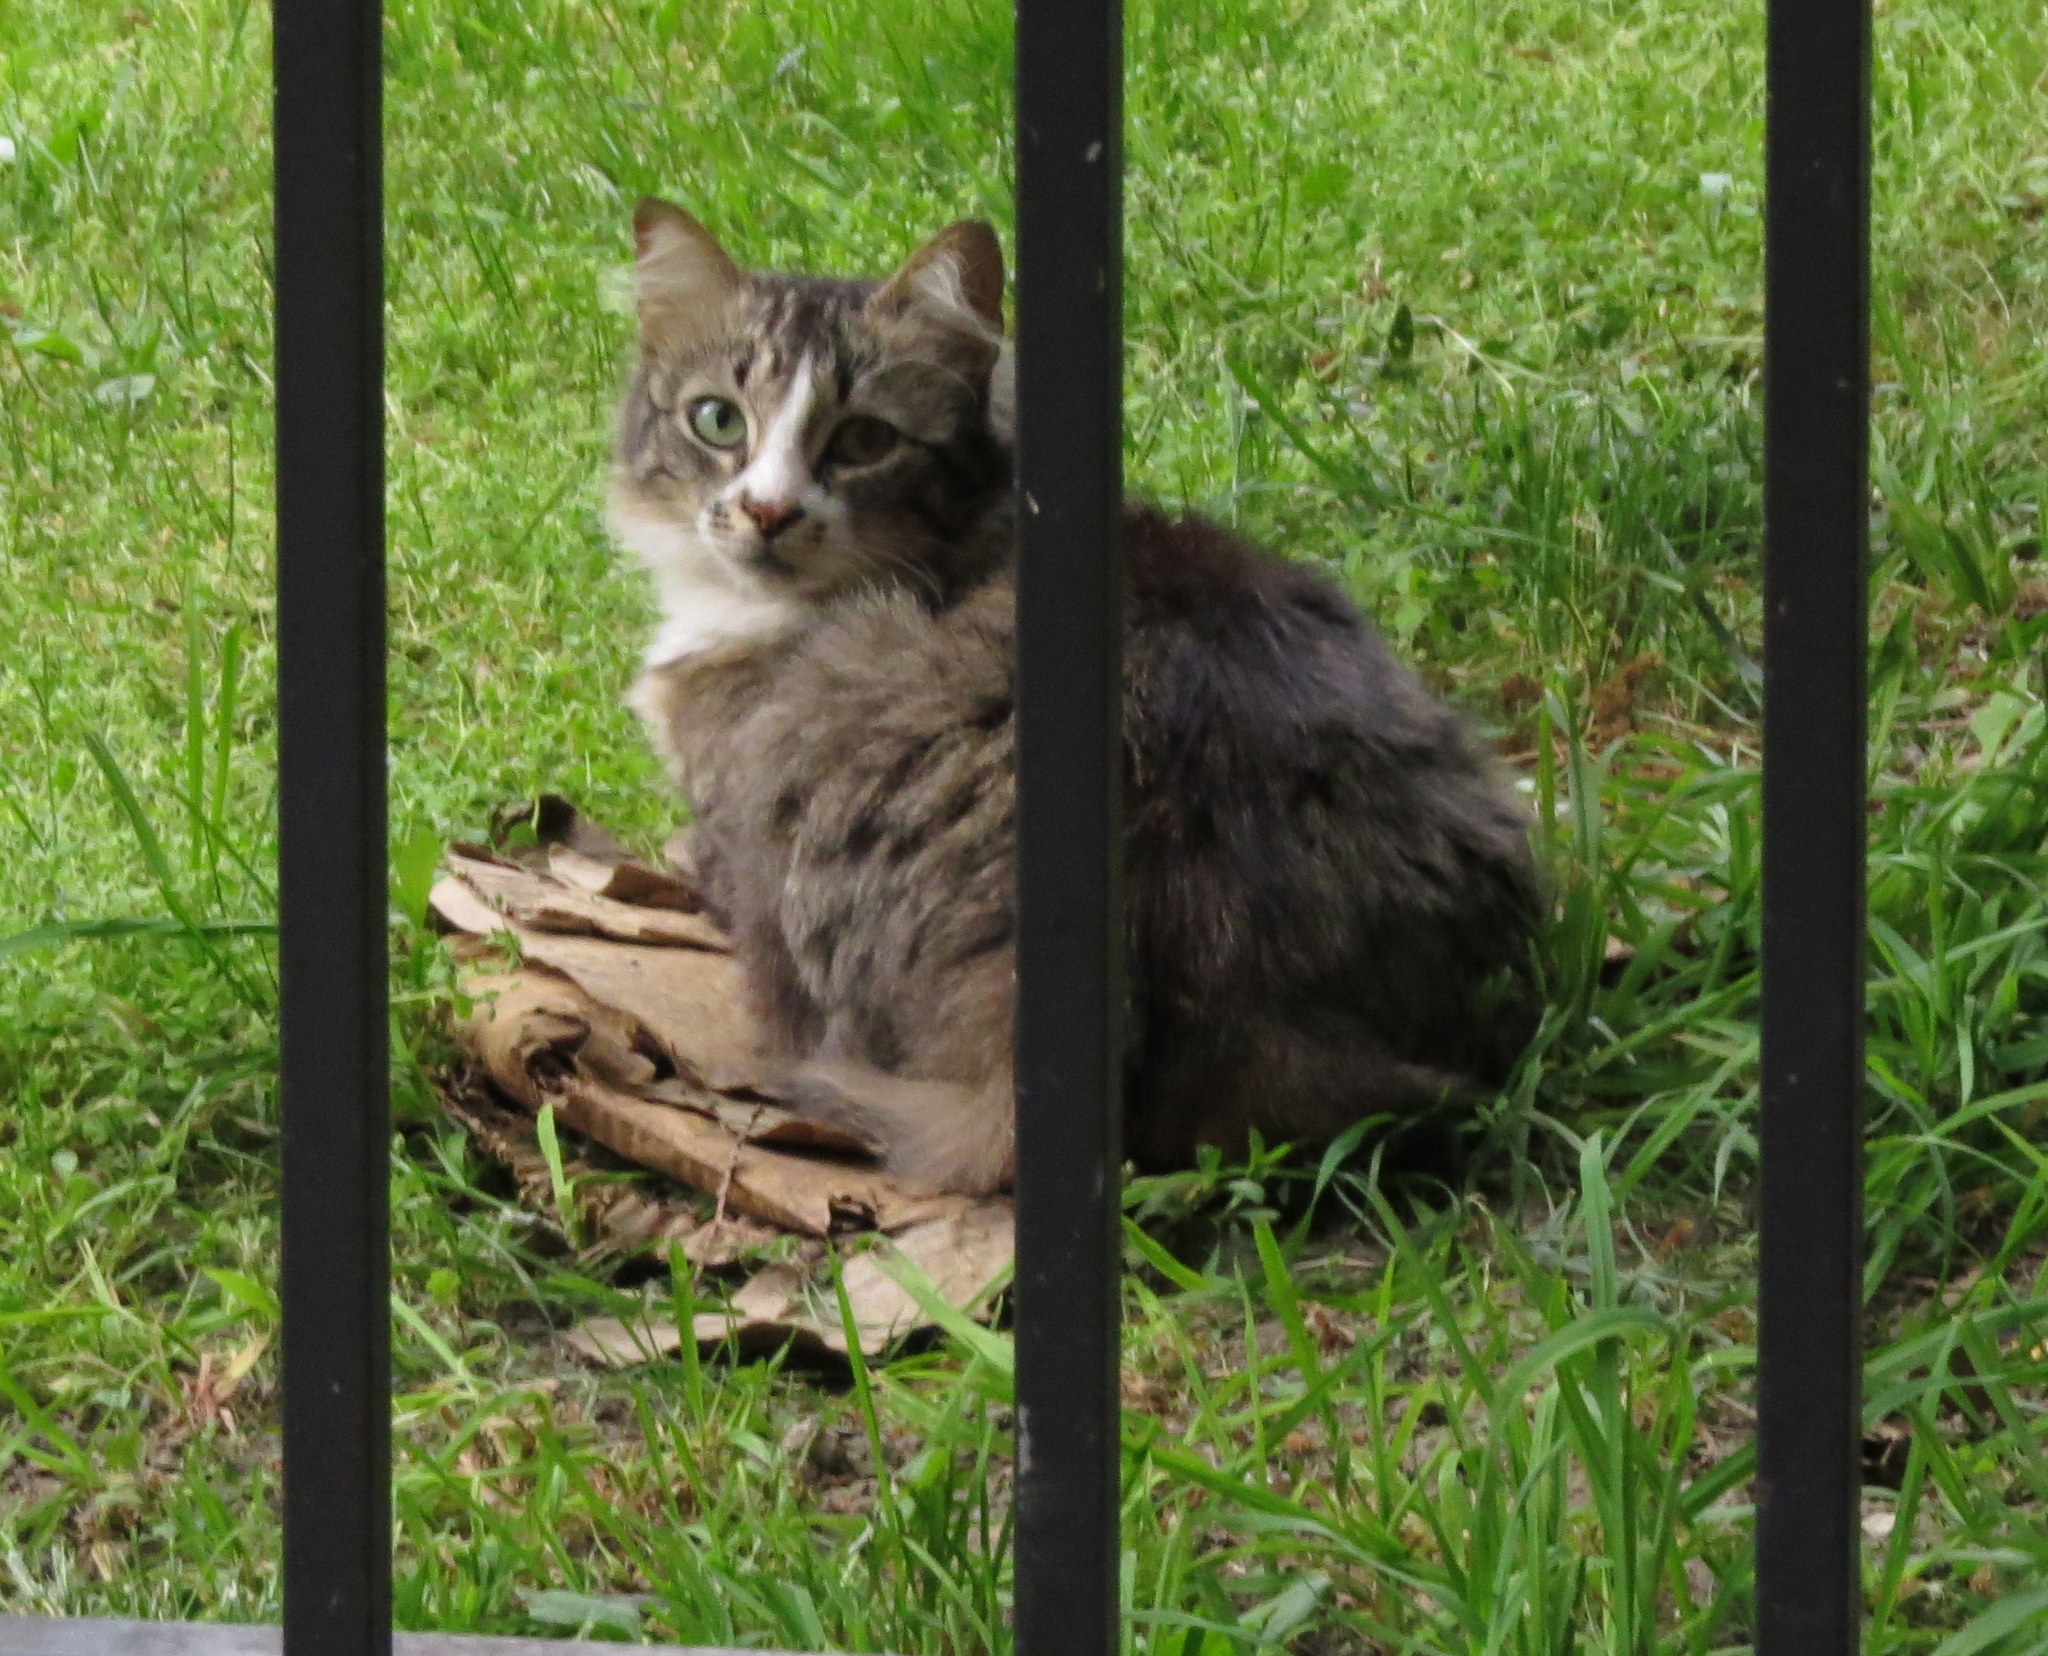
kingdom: Animalia
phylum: Chordata
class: Mammalia
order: Carnivora
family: Felidae
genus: Felis
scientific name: Felis catus
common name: Domestic cat
